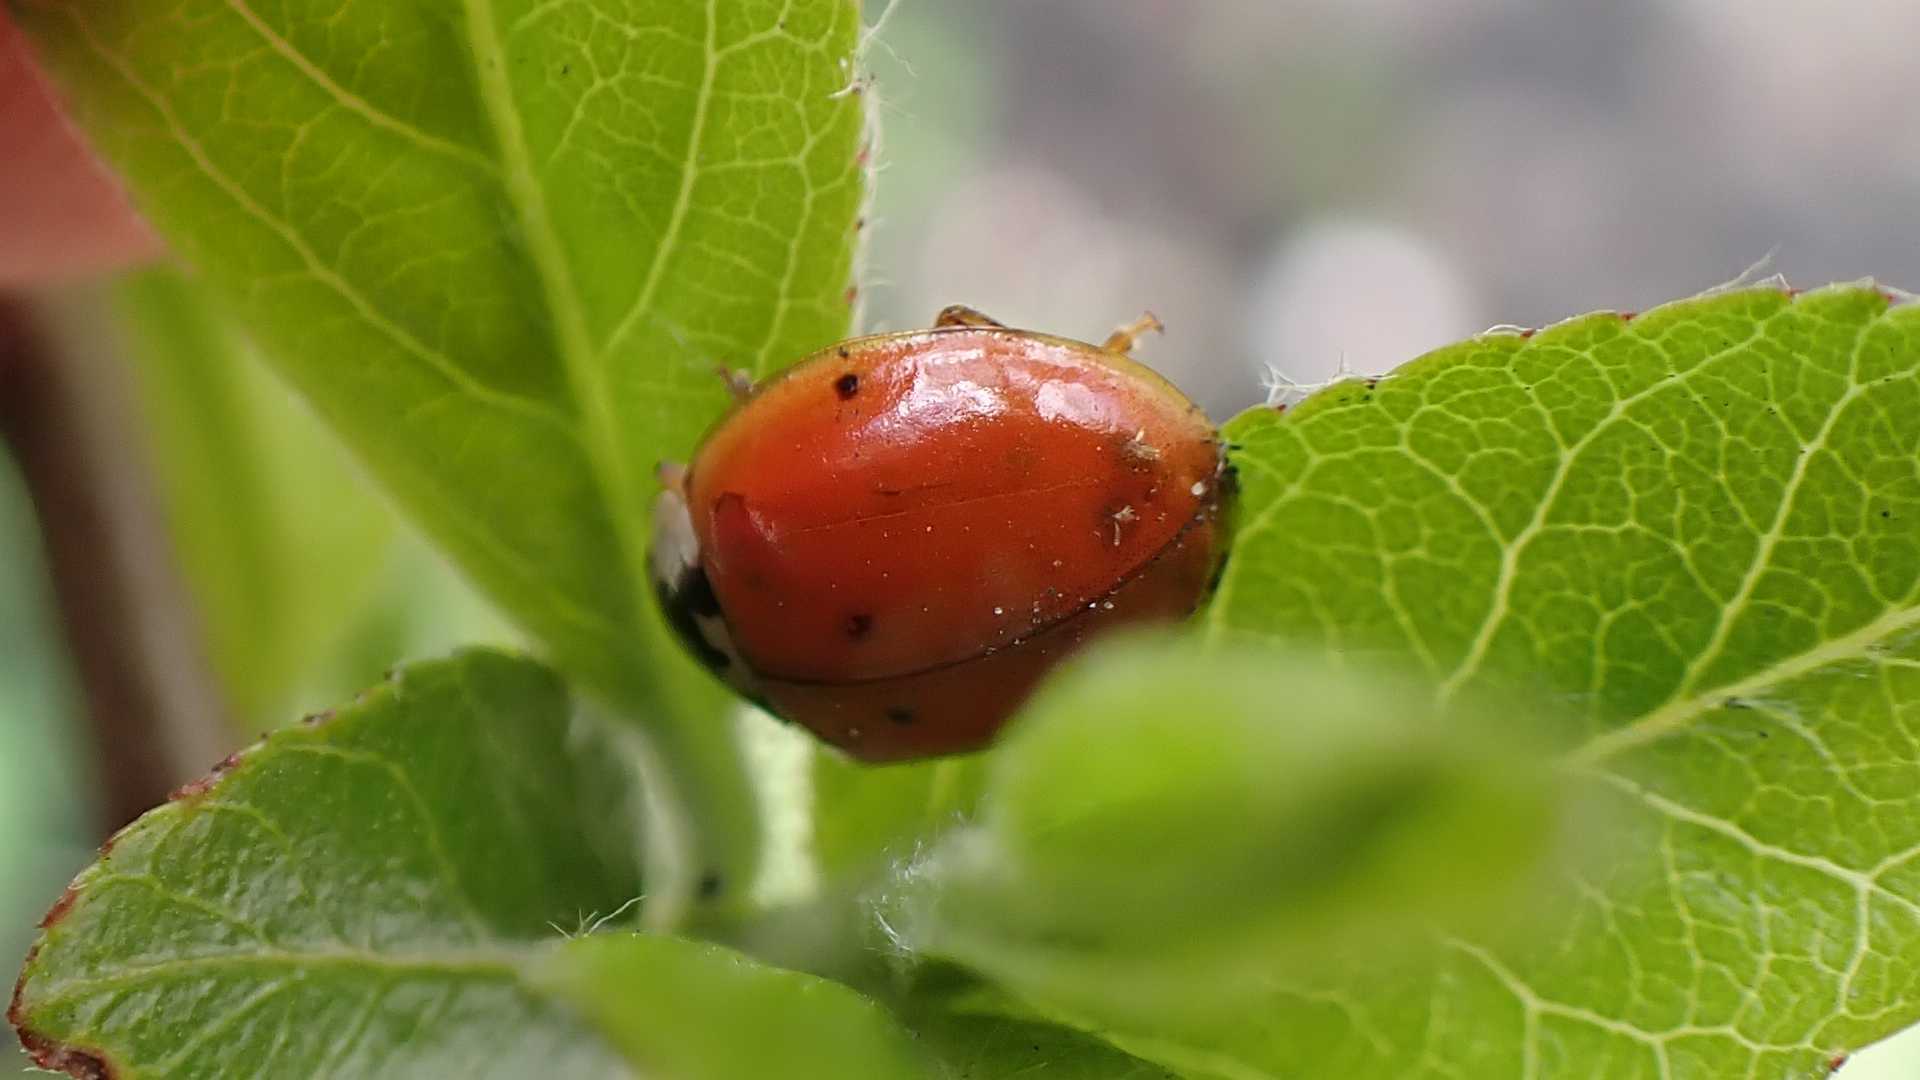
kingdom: Animalia
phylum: Arthropoda
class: Insecta
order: Coleoptera
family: Coccinellidae
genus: Harmonia
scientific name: Harmonia axyridis
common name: Harlequin ladybird
